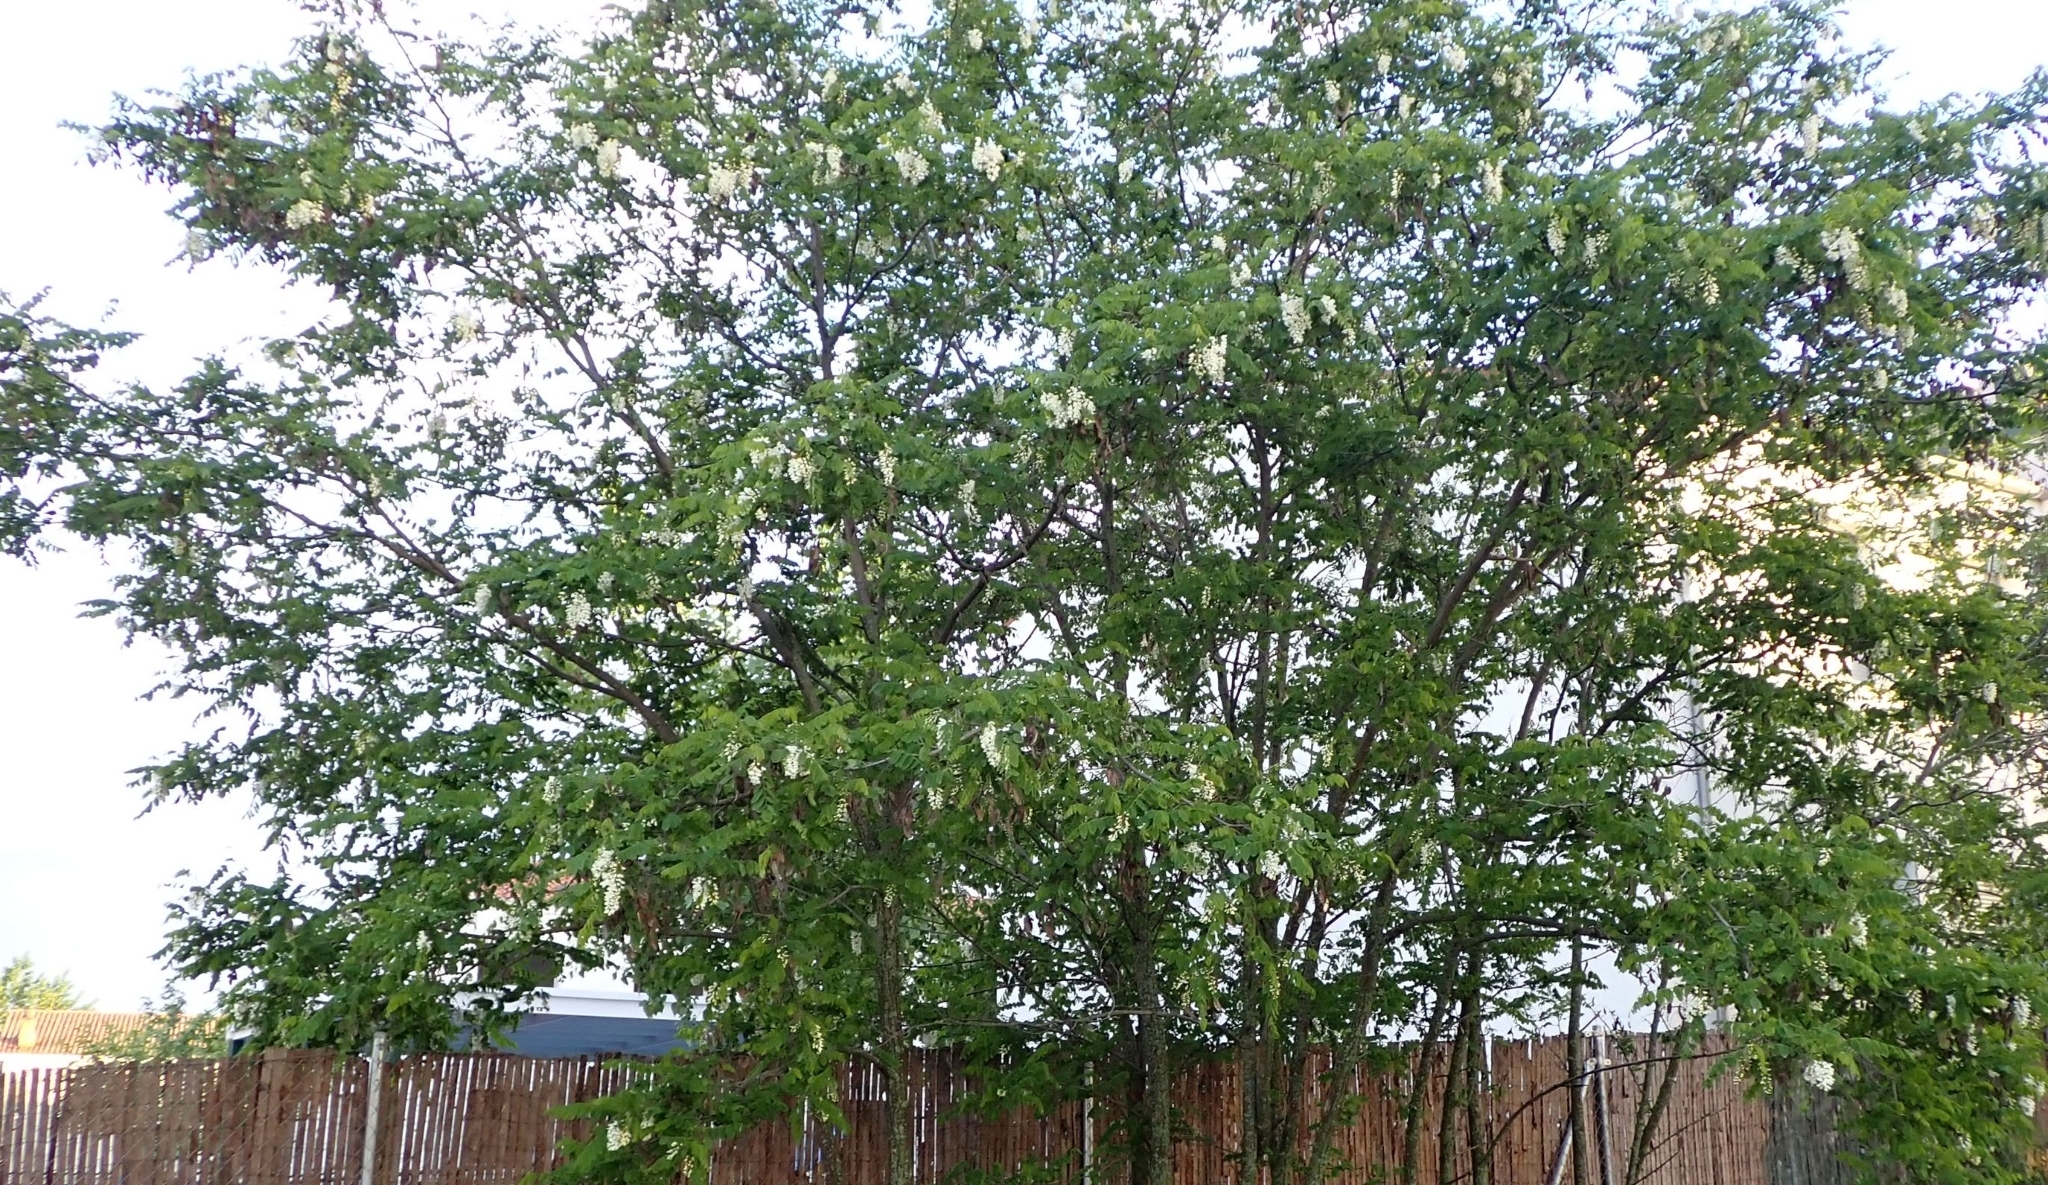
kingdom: Plantae
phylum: Tracheophyta
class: Magnoliopsida
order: Fabales
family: Fabaceae
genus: Robinia
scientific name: Robinia pseudoacacia
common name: Black locust
